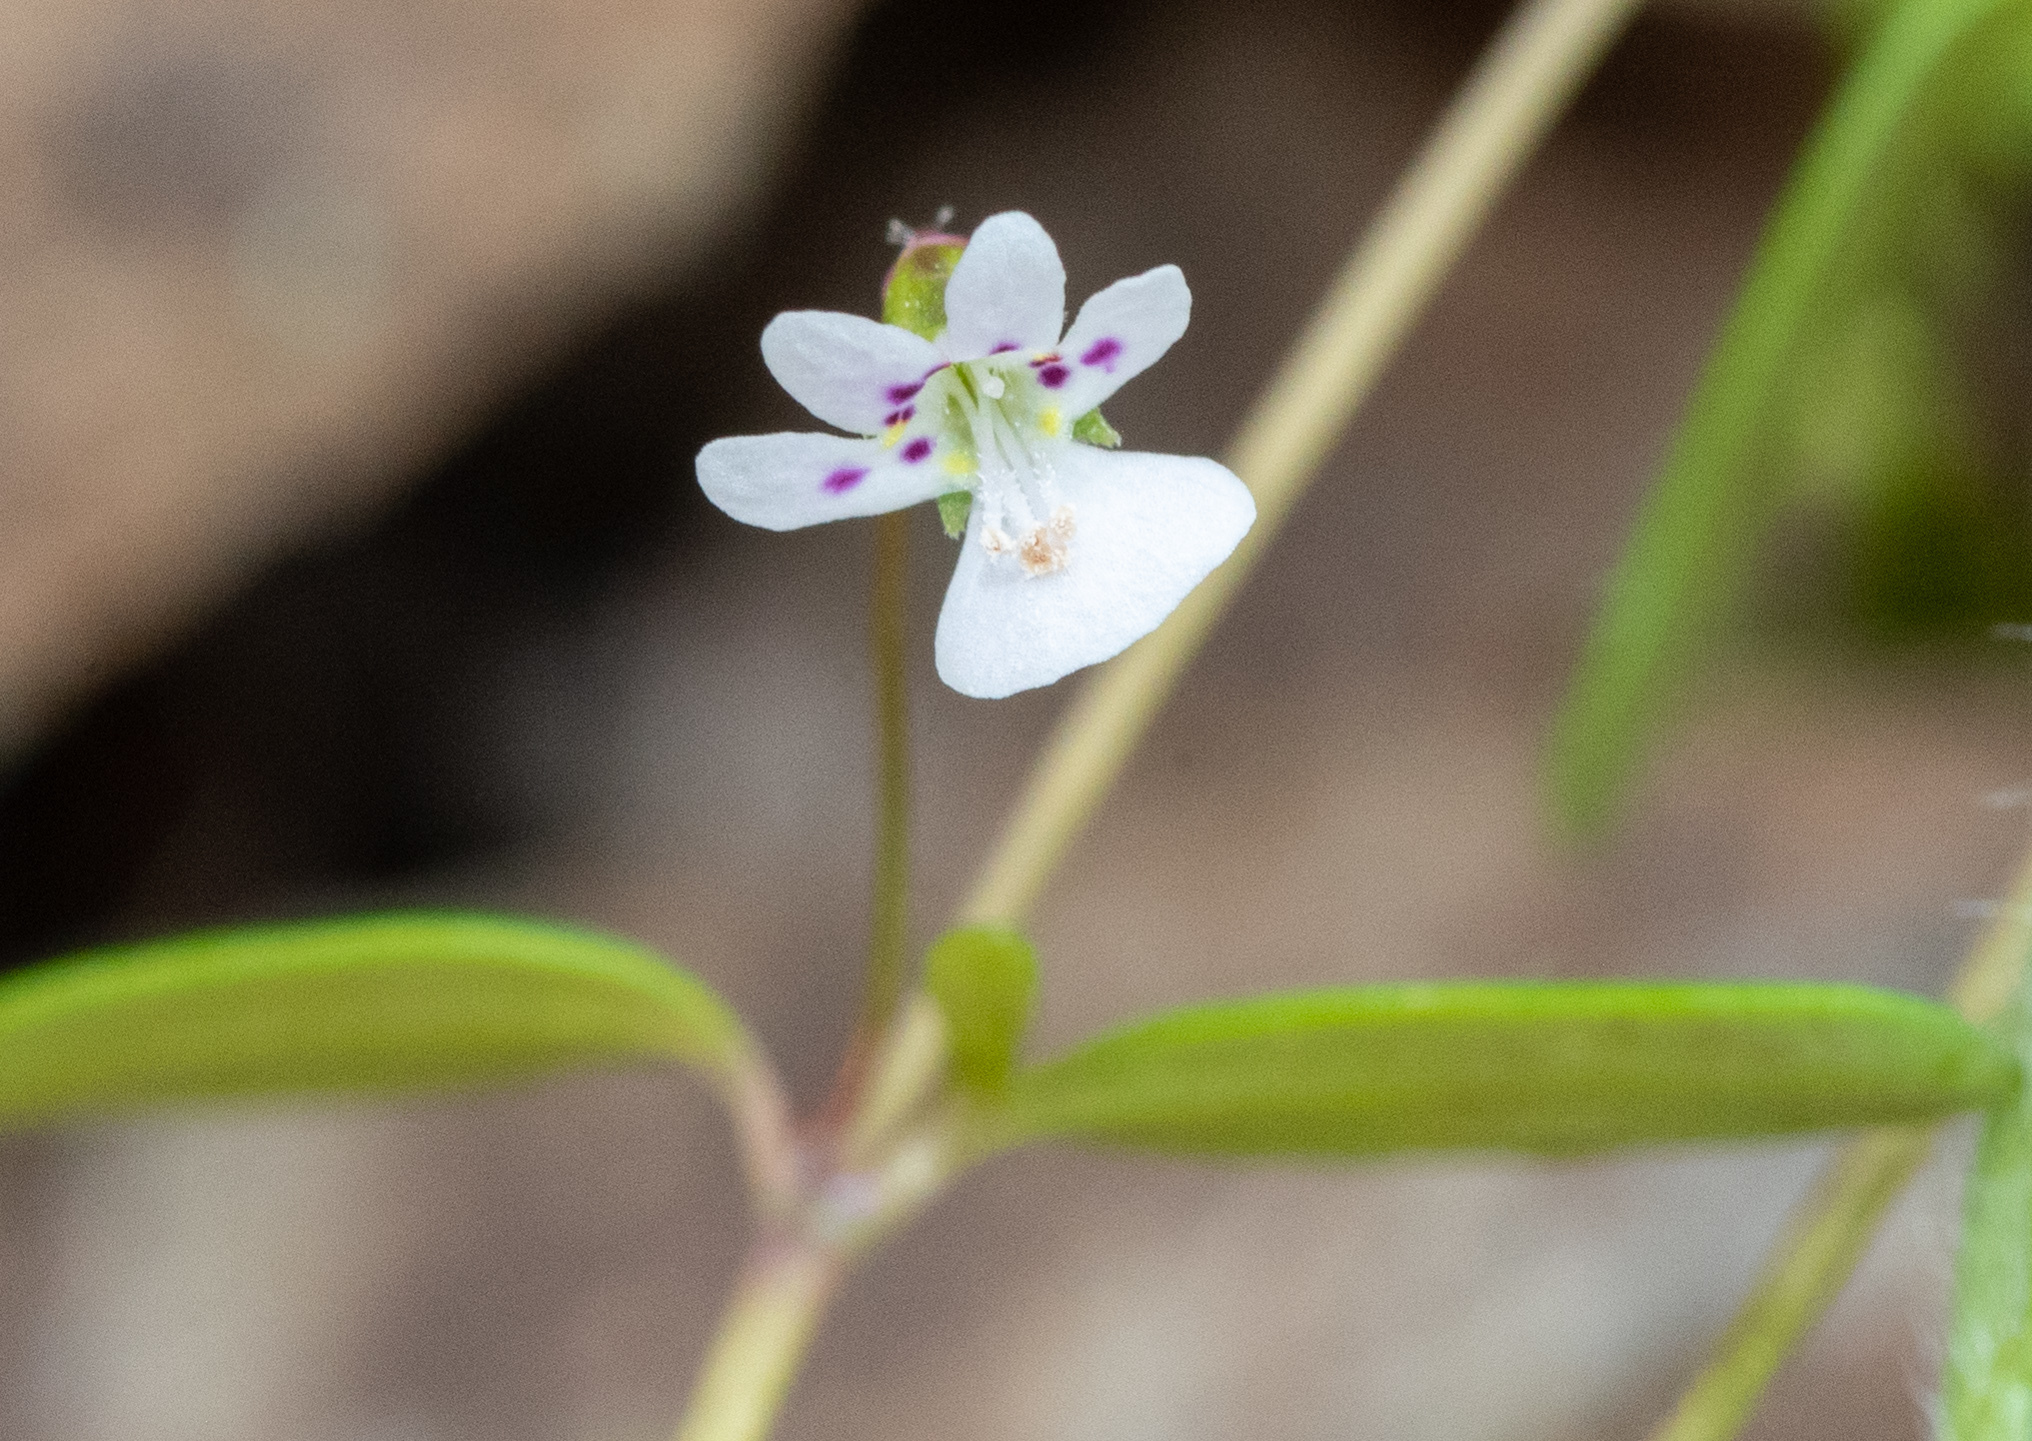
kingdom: Plantae
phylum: Tracheophyta
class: Magnoliopsida
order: Lamiales
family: Plantaginaceae
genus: Tonella
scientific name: Tonella tenella
